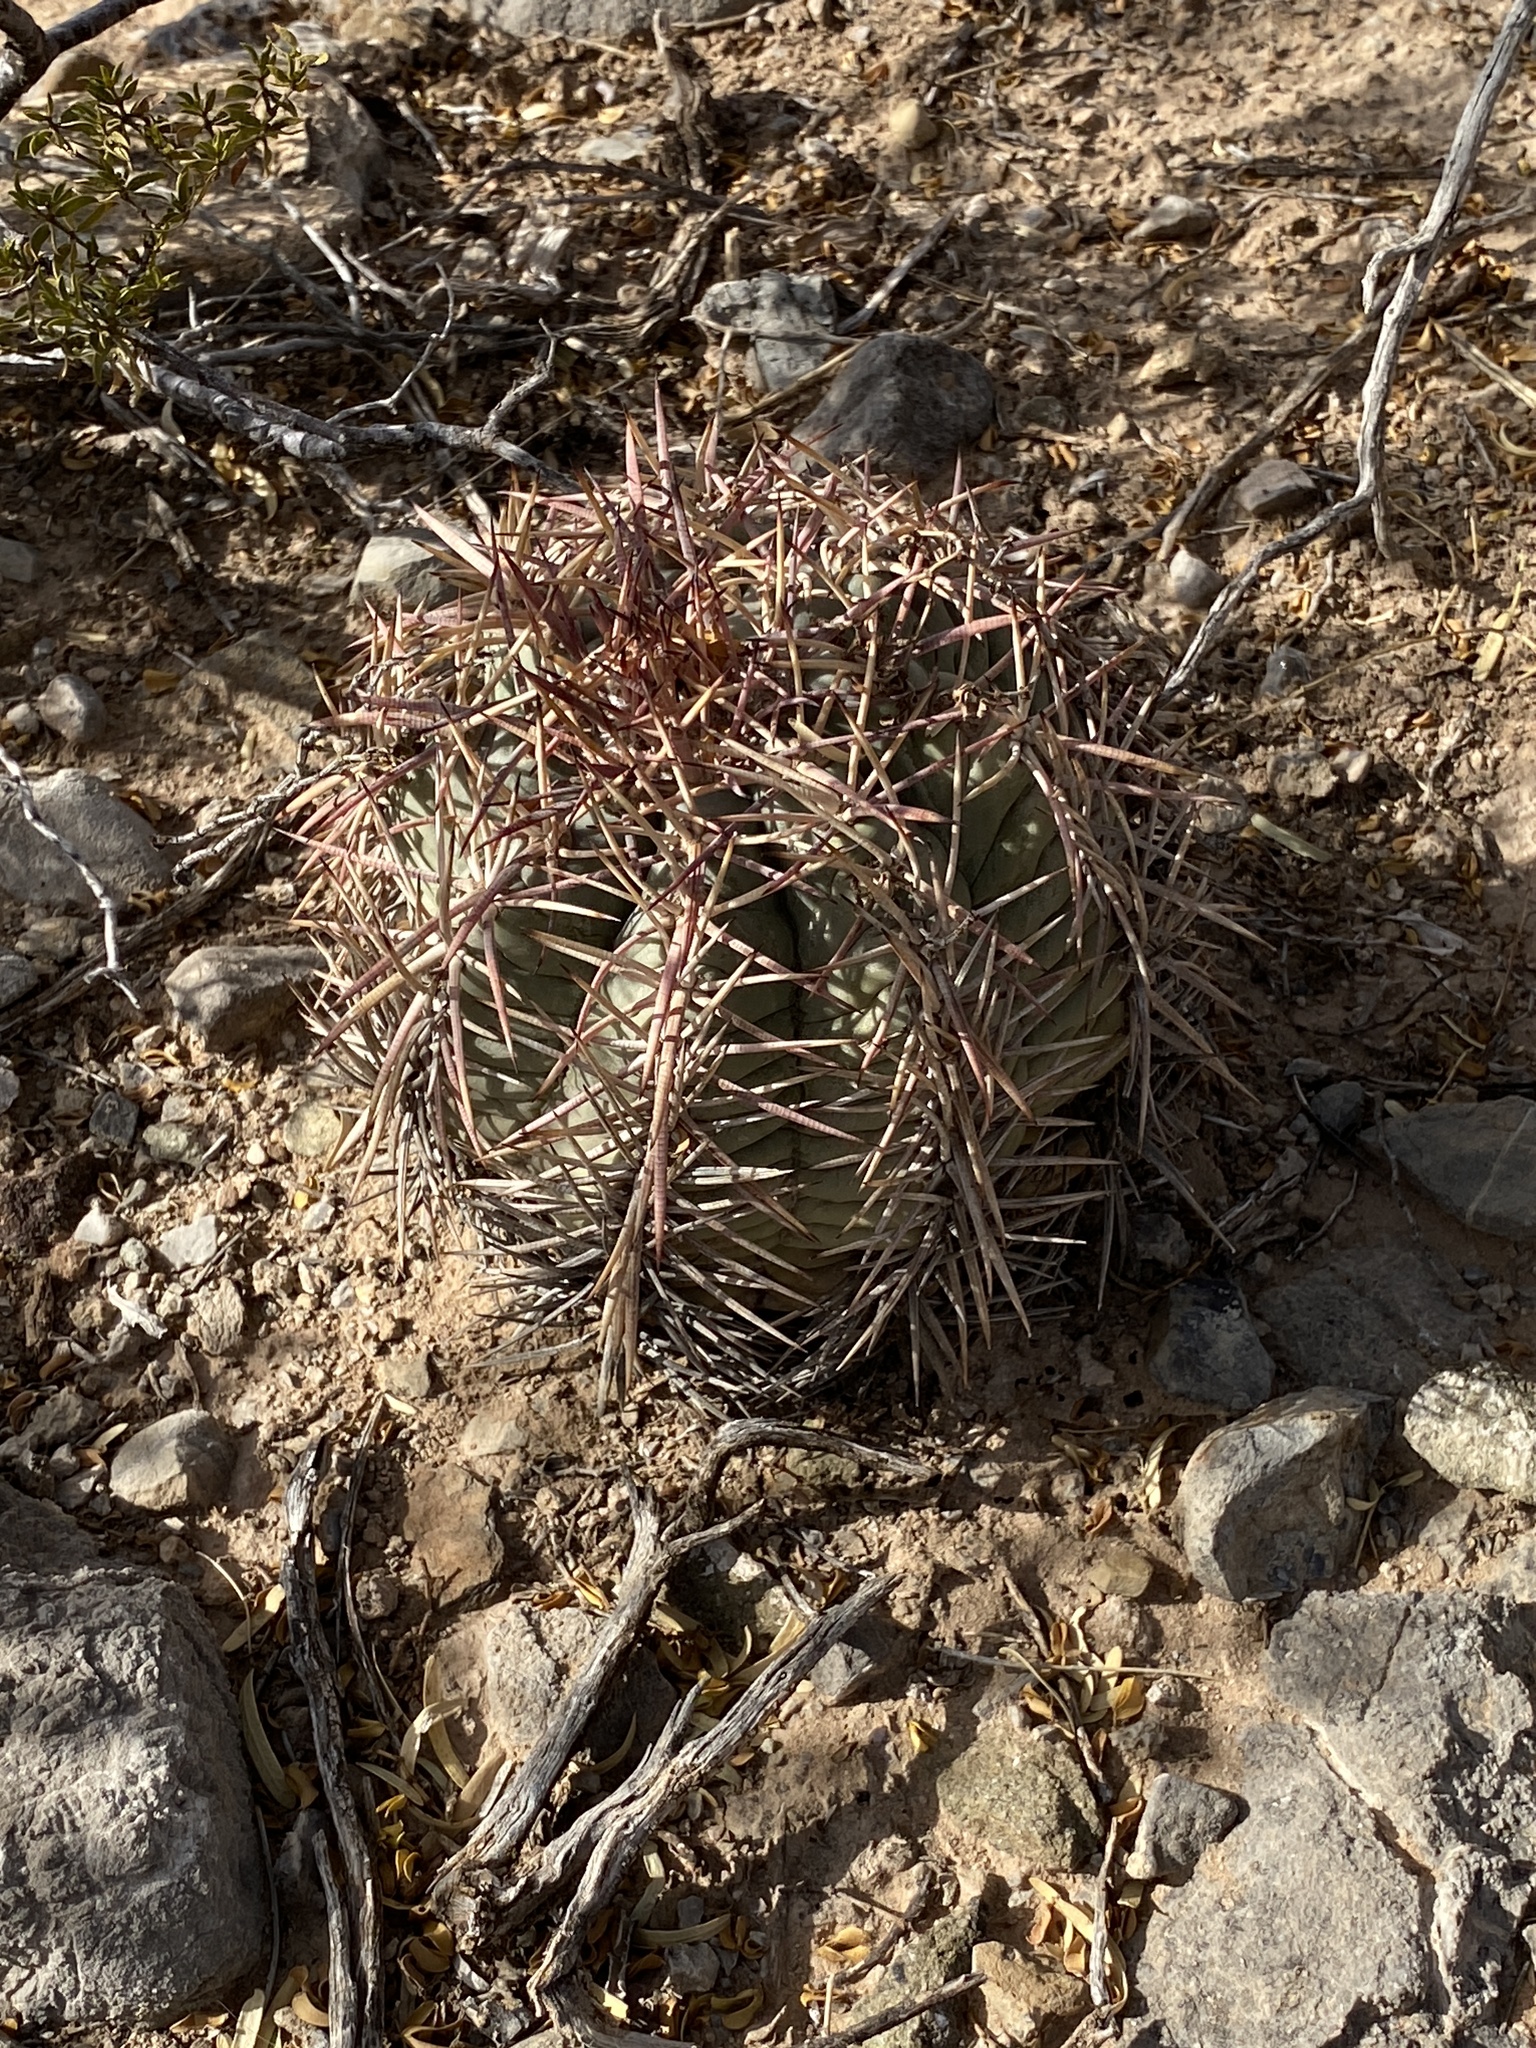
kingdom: Plantae
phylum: Tracheophyta
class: Magnoliopsida
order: Caryophyllales
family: Cactaceae
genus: Echinocactus
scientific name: Echinocactus horizonthalonius
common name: Devilshead
